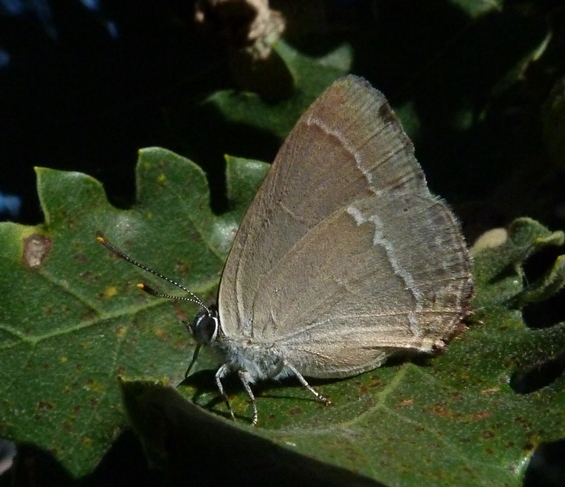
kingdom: Animalia
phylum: Arthropoda
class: Insecta
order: Lepidoptera
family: Lycaenidae
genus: Quercusia
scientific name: Quercusia quercus
